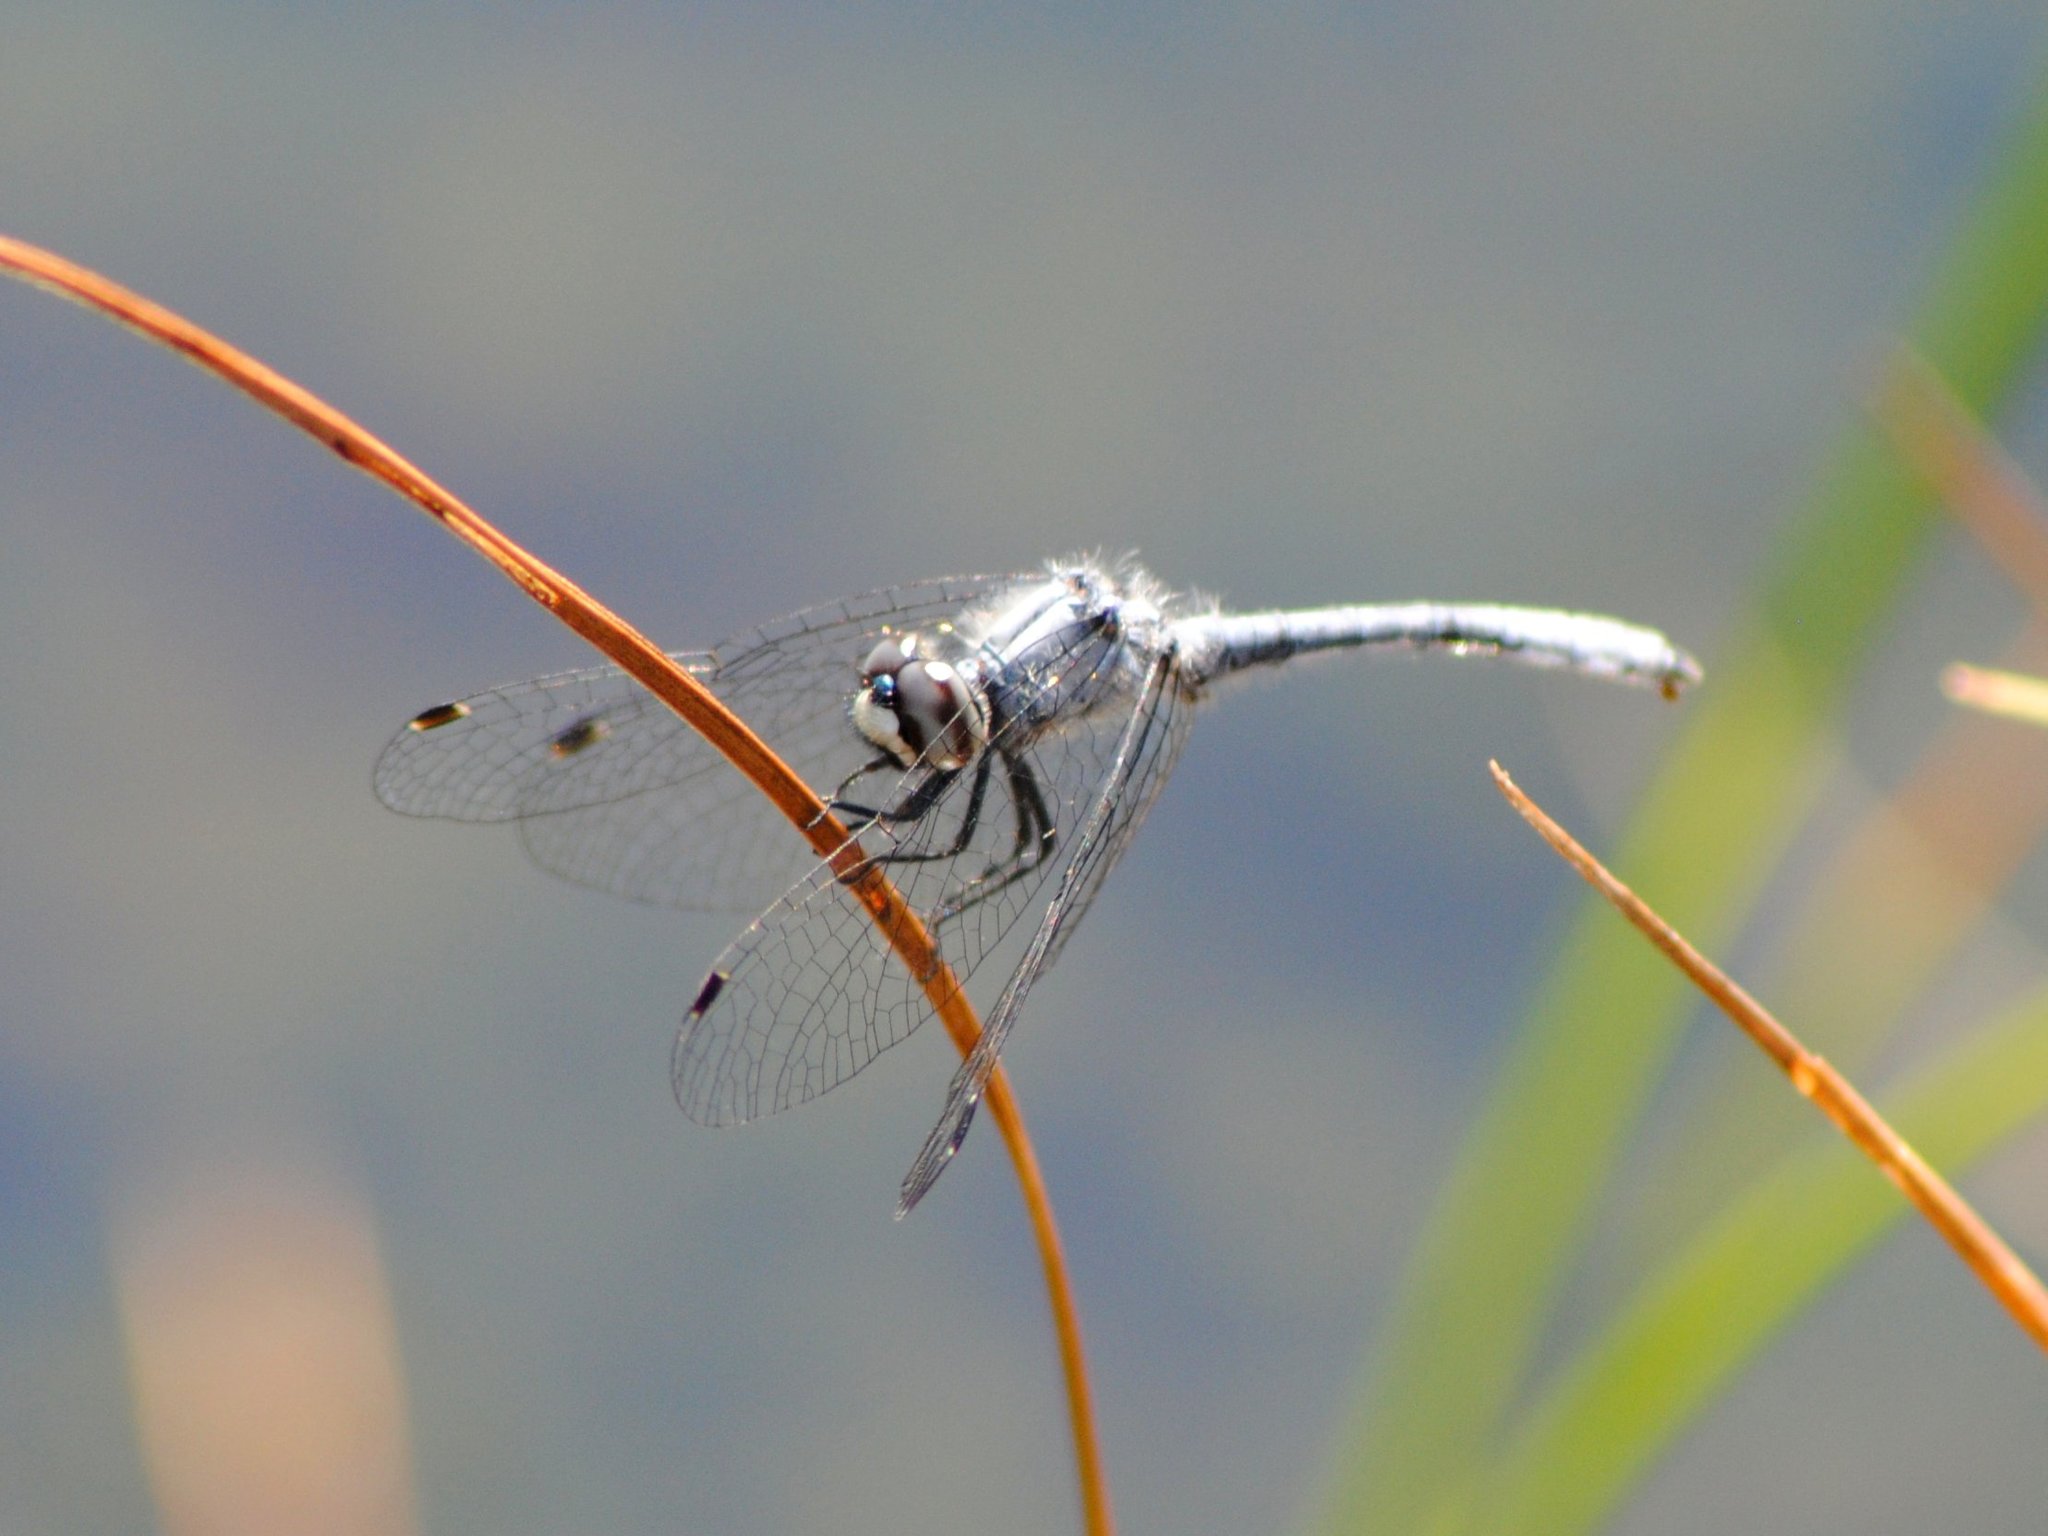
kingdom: Animalia
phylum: Arthropoda
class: Insecta
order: Odonata
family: Libellulidae
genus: Nannothemis
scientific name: Nannothemis bella
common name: Elfin skimmer
